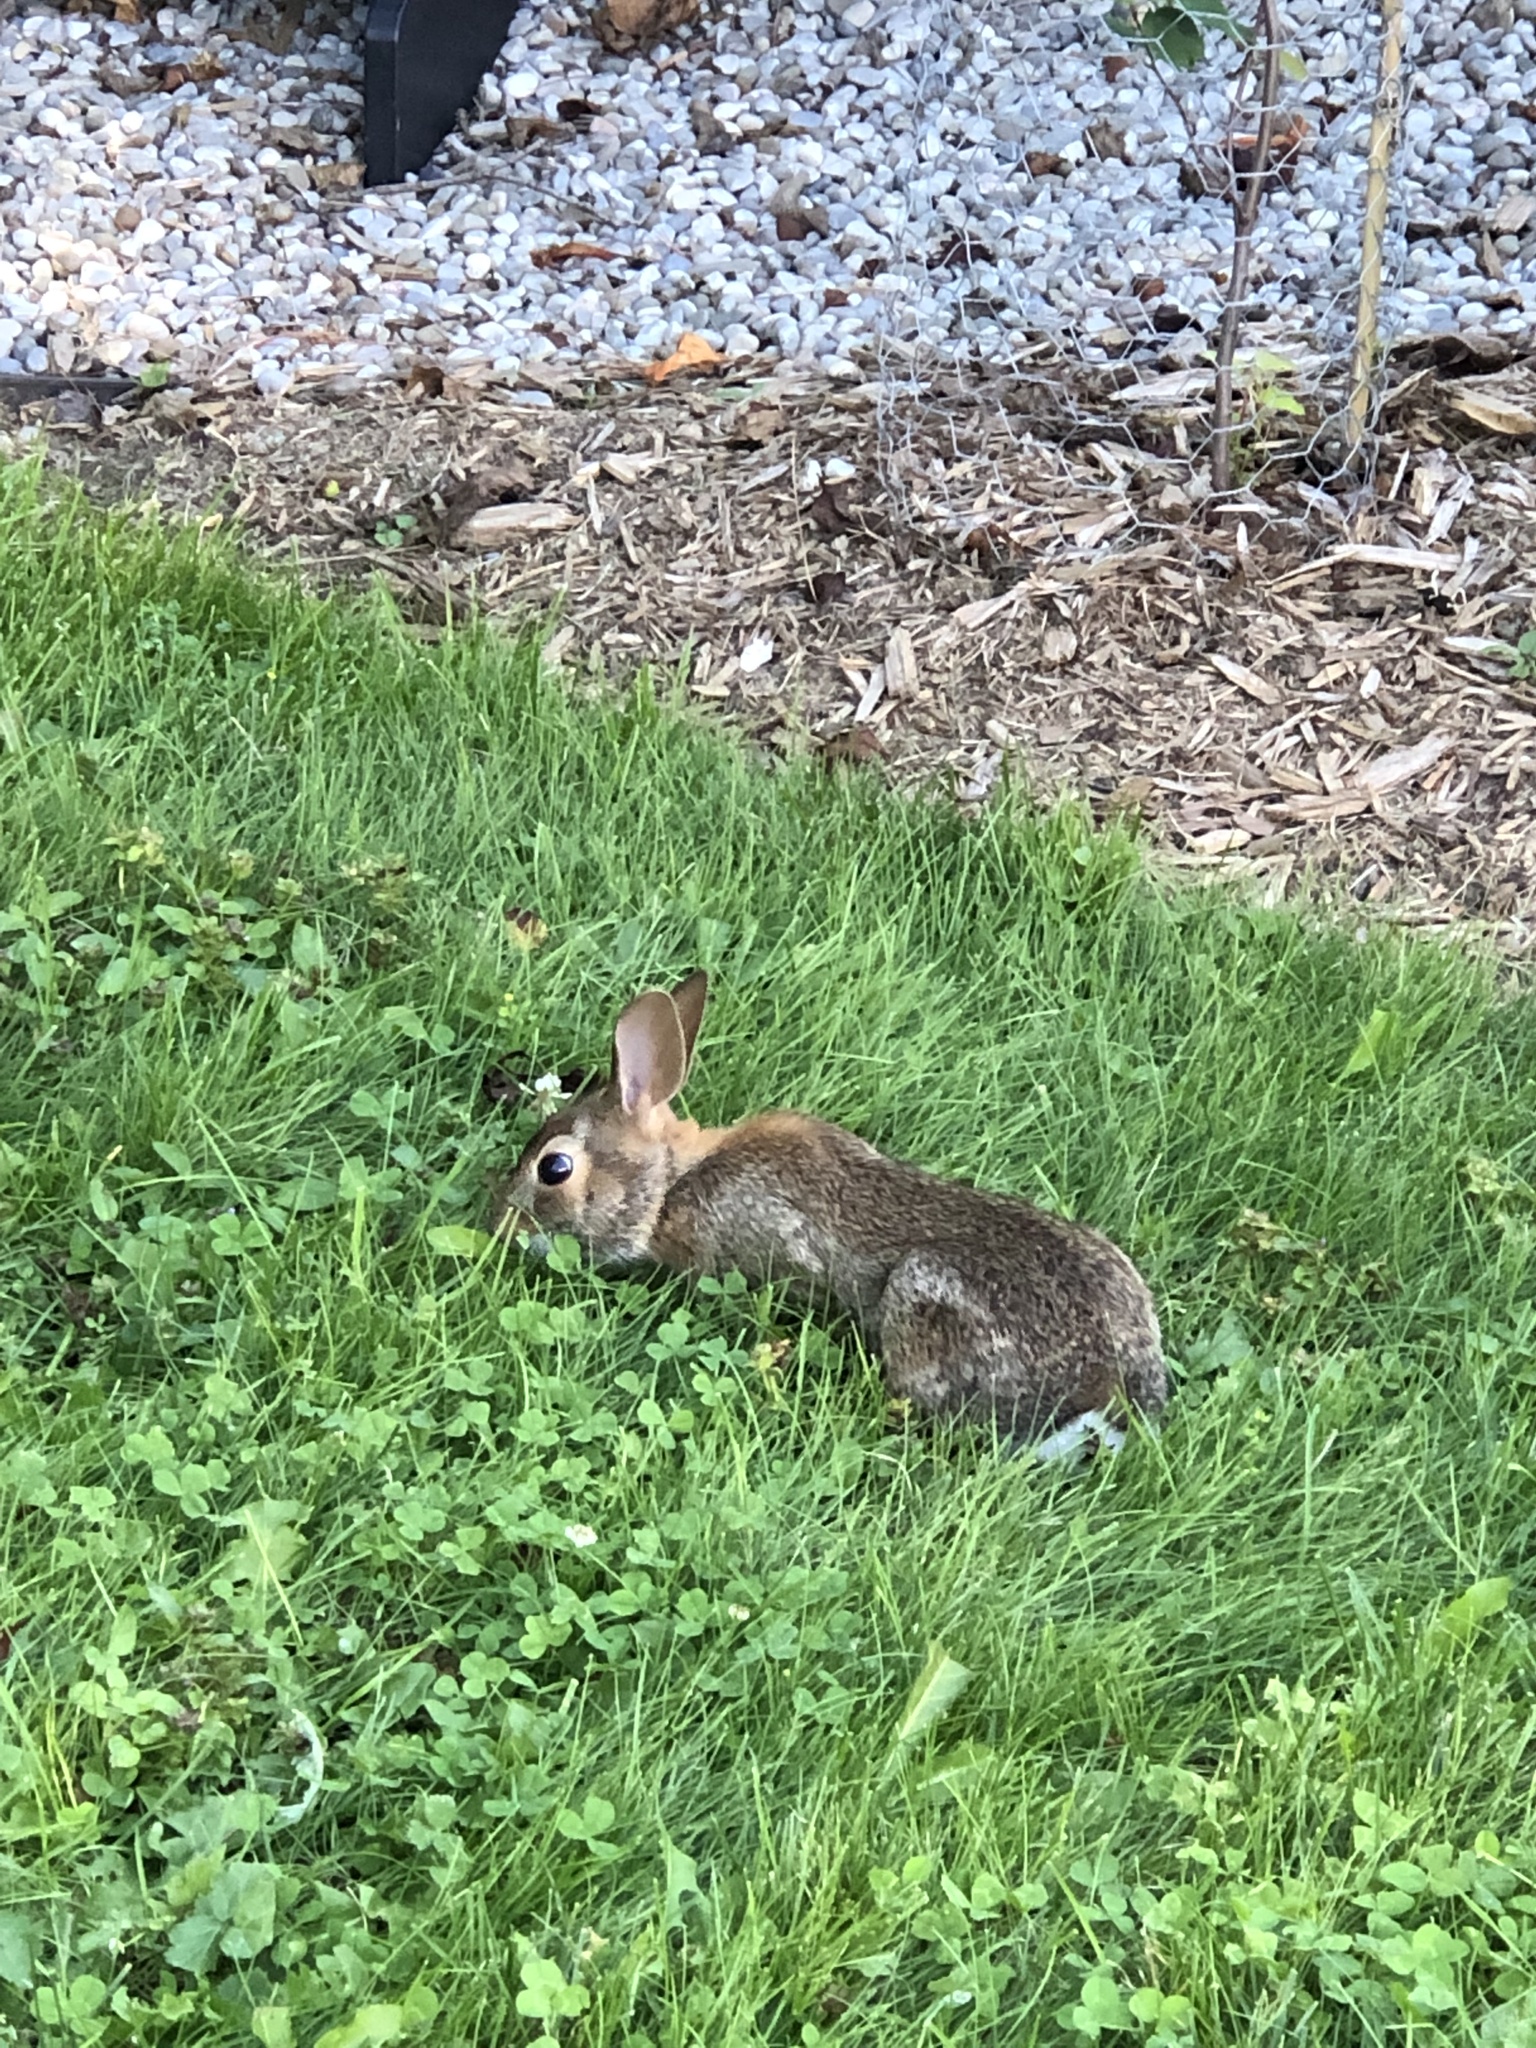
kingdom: Animalia
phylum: Chordata
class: Mammalia
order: Lagomorpha
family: Leporidae
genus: Sylvilagus
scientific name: Sylvilagus floridanus
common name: Eastern cottontail
